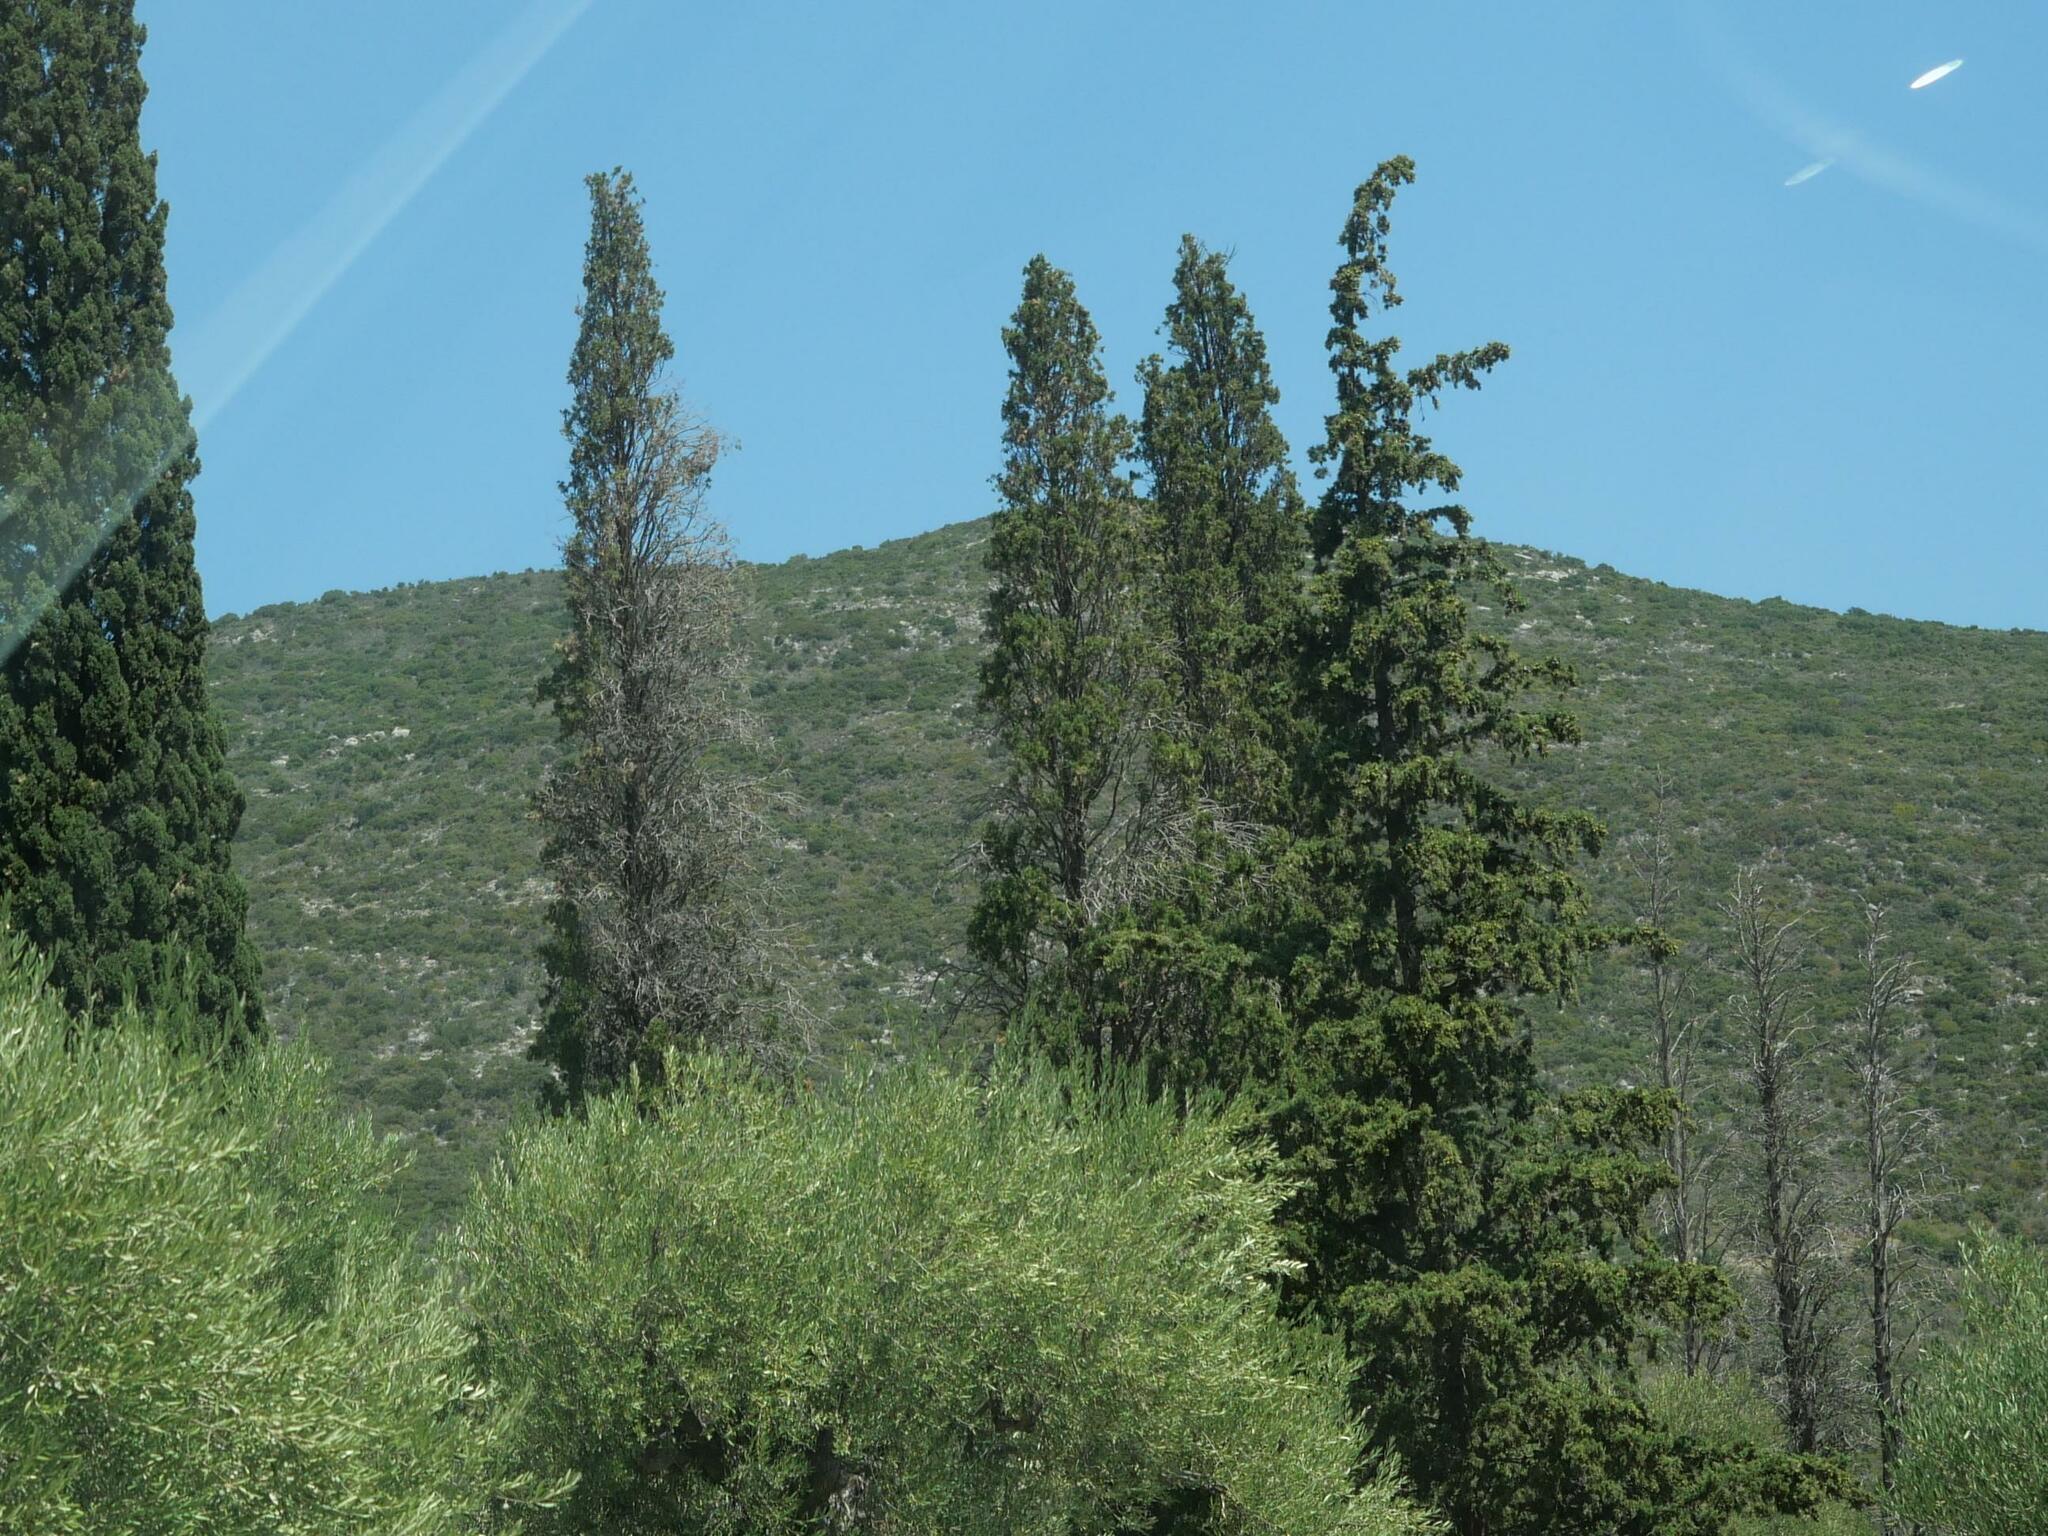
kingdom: Plantae
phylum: Tracheophyta
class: Pinopsida
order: Pinales
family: Cupressaceae
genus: Cupressus
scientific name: Cupressus sempervirens
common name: Italian cypress
